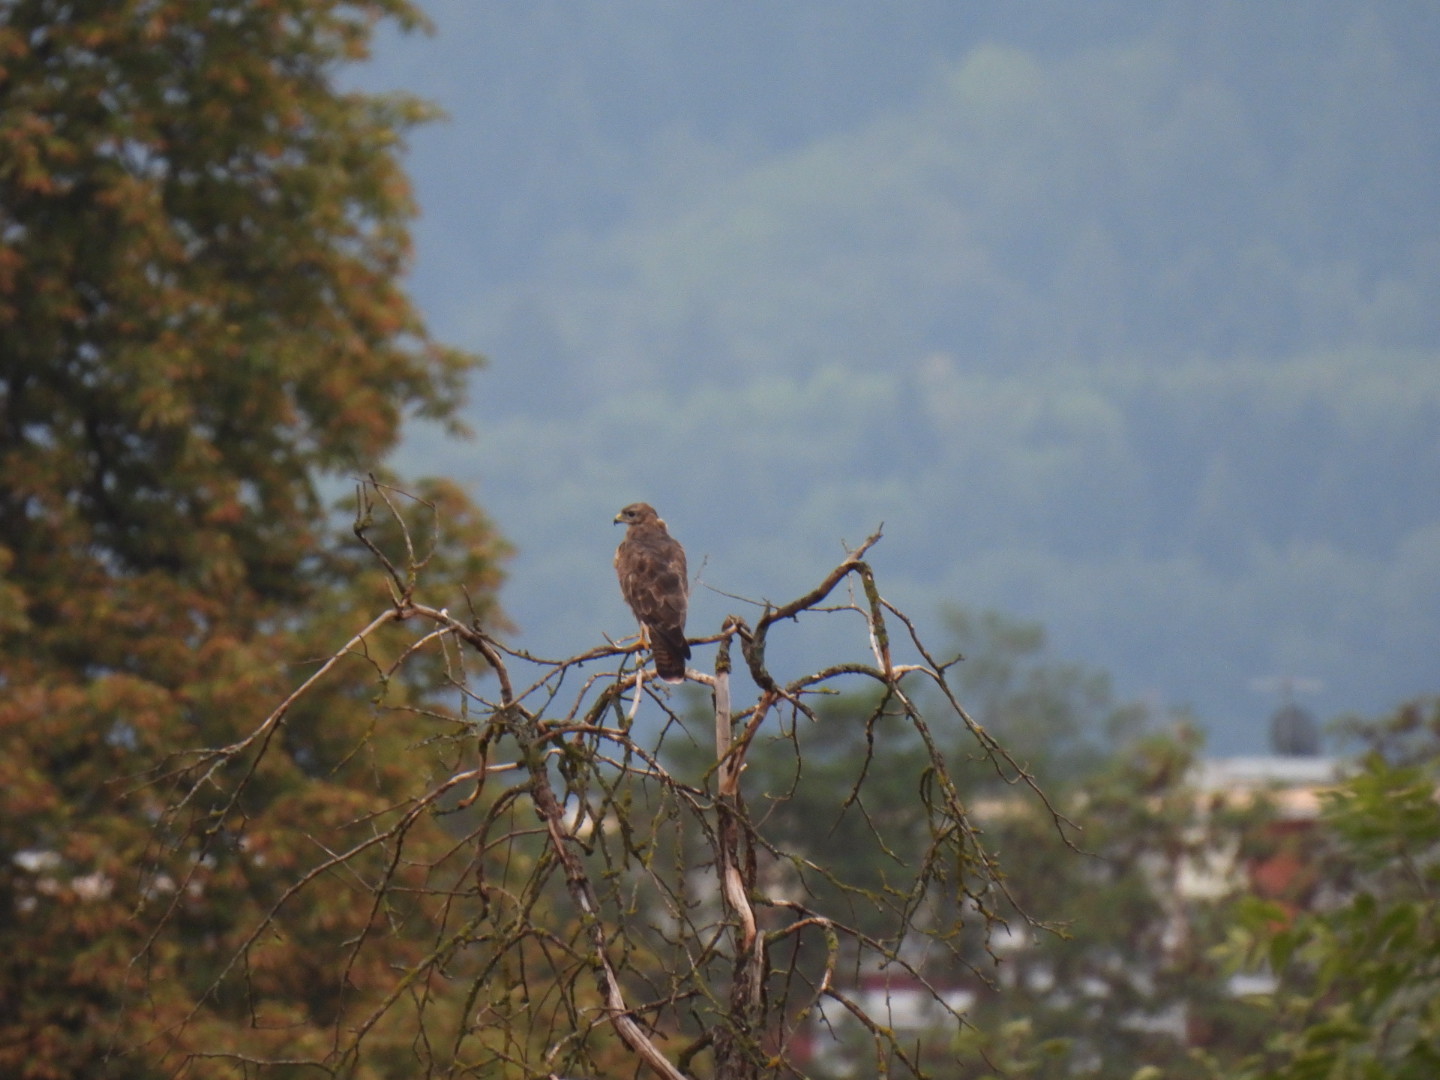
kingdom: Animalia
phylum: Chordata
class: Aves
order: Accipitriformes
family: Accipitridae
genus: Buteo
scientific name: Buteo buteo
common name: Common buzzard
